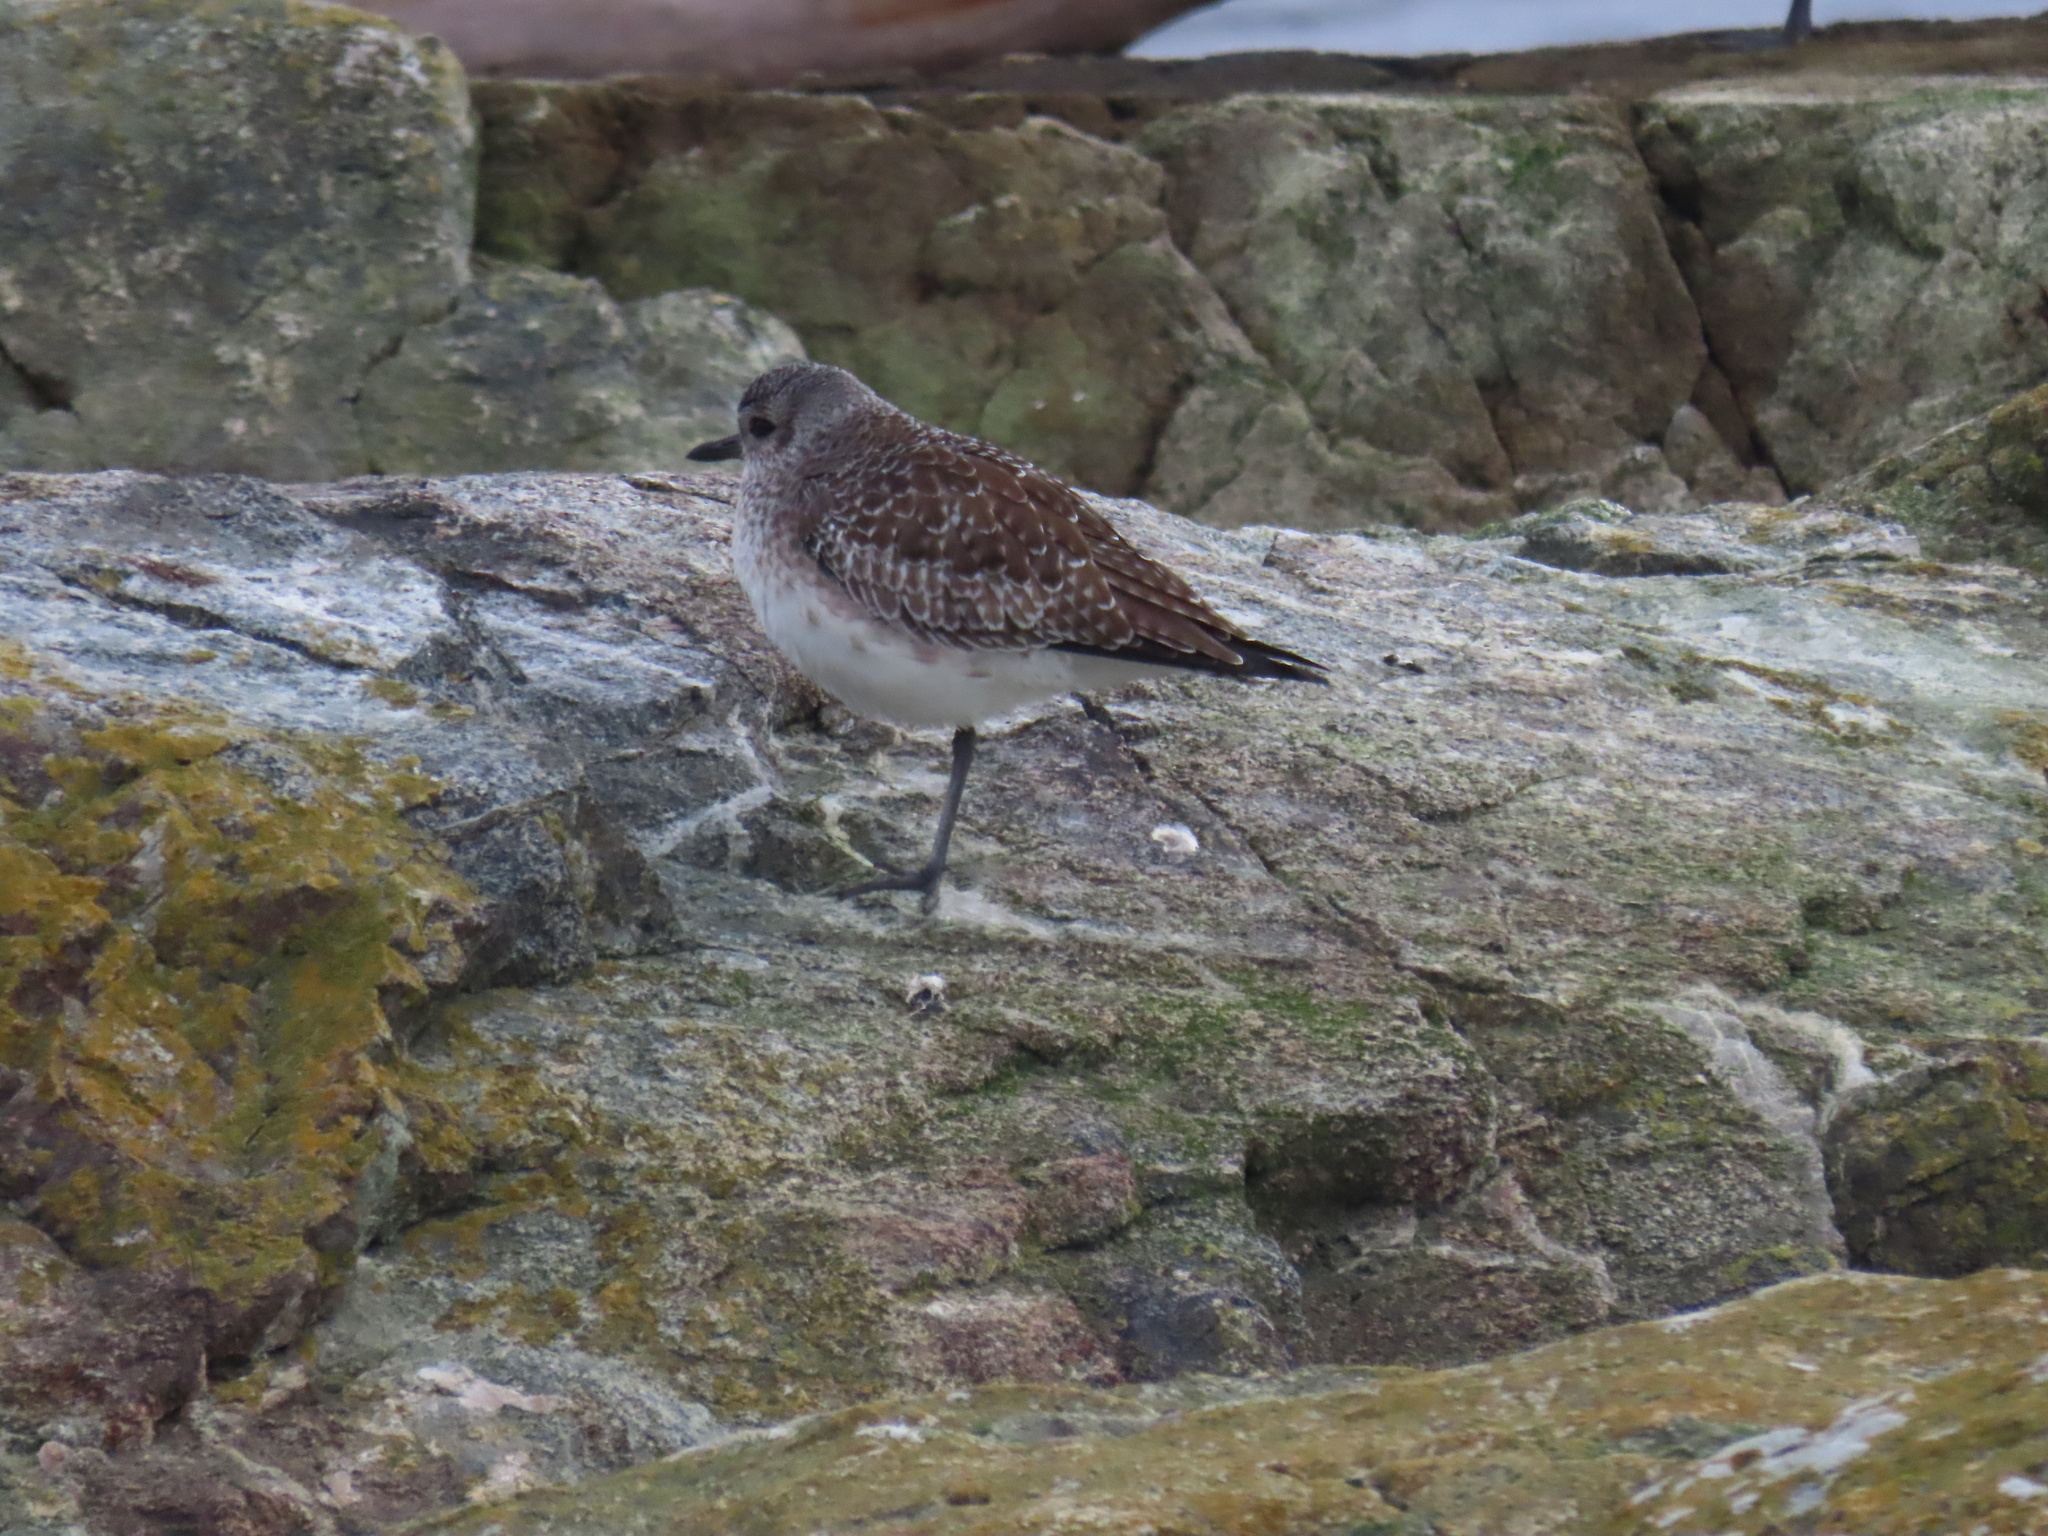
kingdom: Animalia
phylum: Chordata
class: Aves
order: Charadriiformes
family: Charadriidae
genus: Pluvialis
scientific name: Pluvialis squatarola
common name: Grey plover
